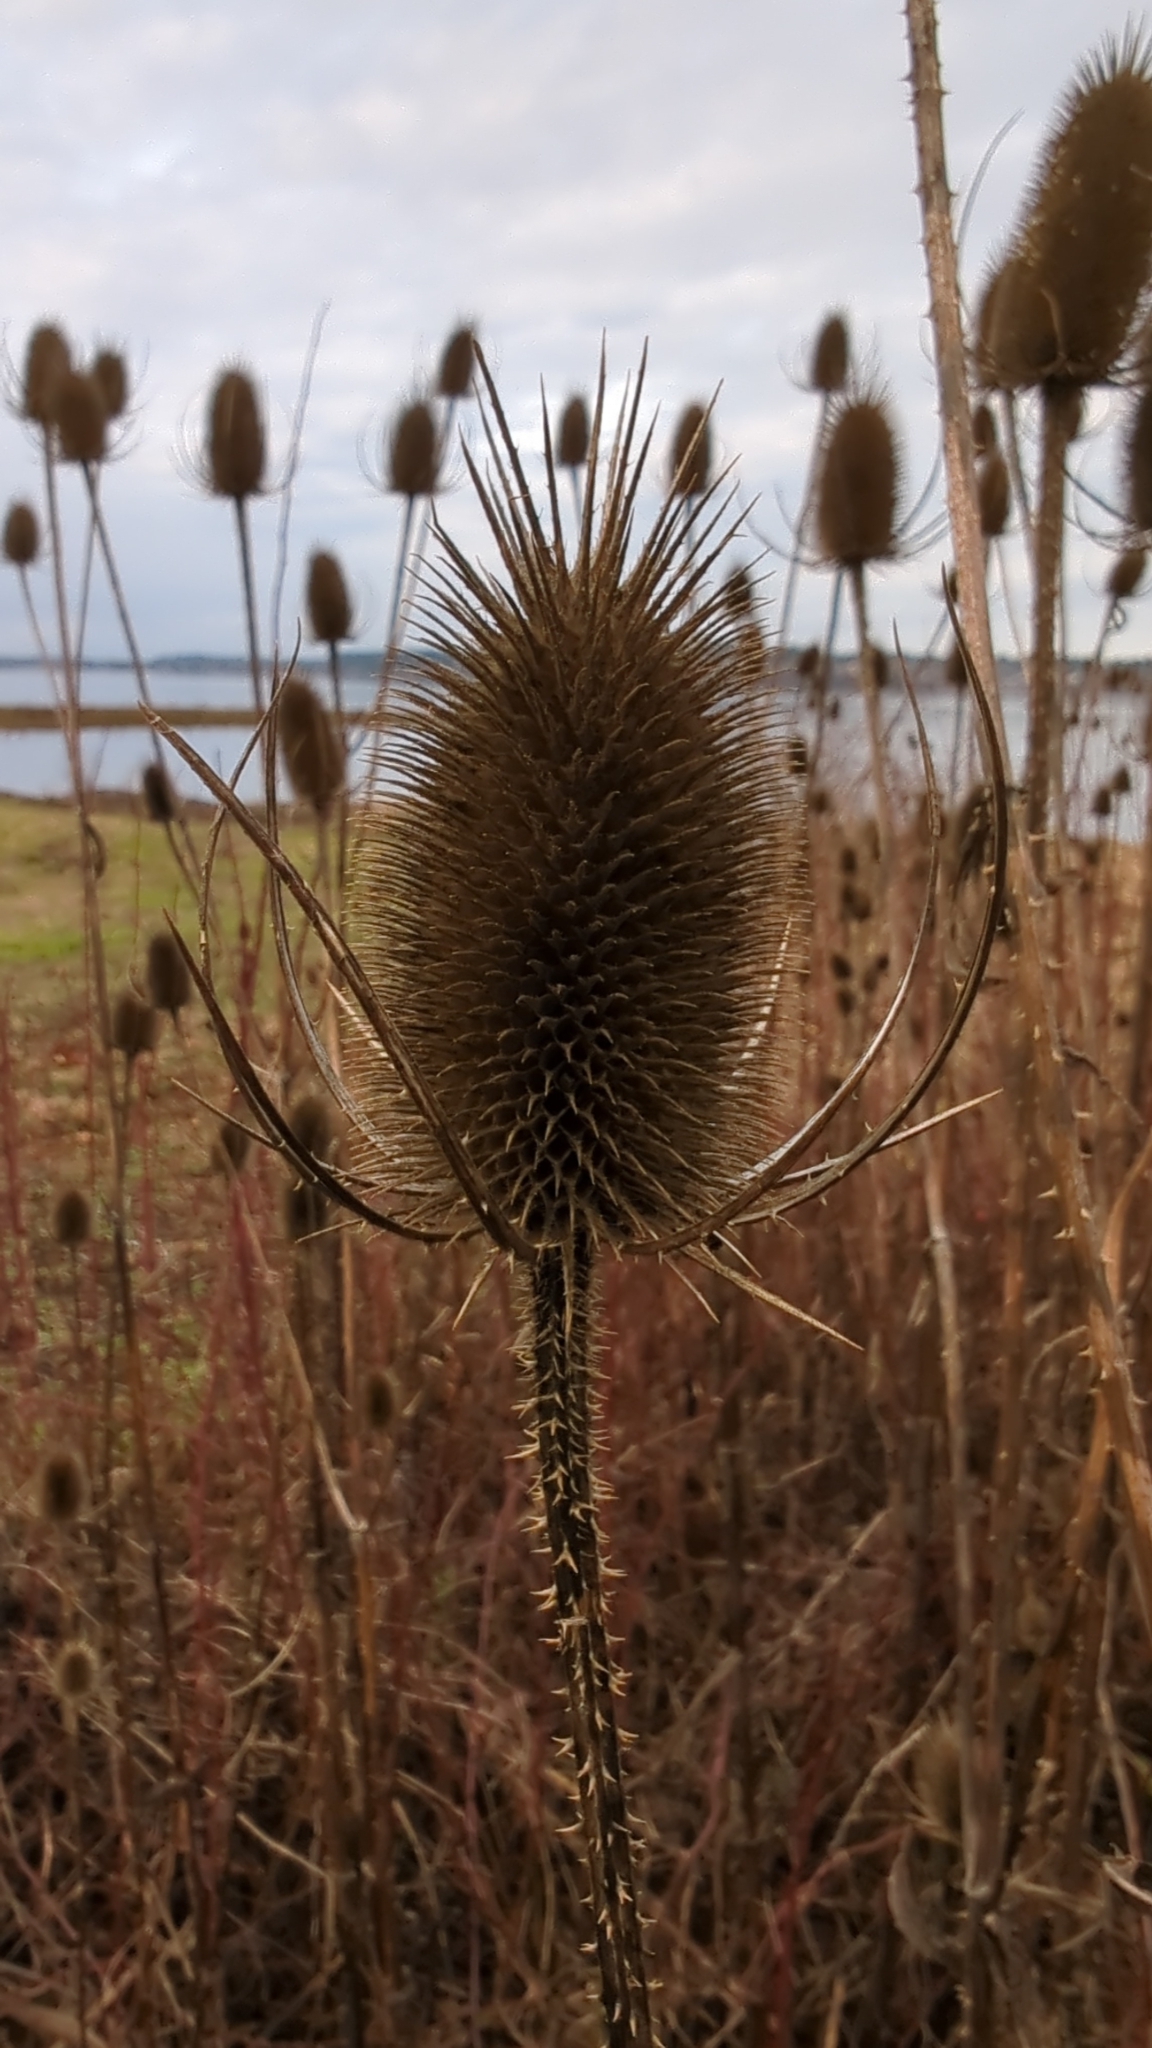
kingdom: Plantae
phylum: Tracheophyta
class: Magnoliopsida
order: Dipsacales
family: Caprifoliaceae
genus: Dipsacus
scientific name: Dipsacus fullonum
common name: Teasel
